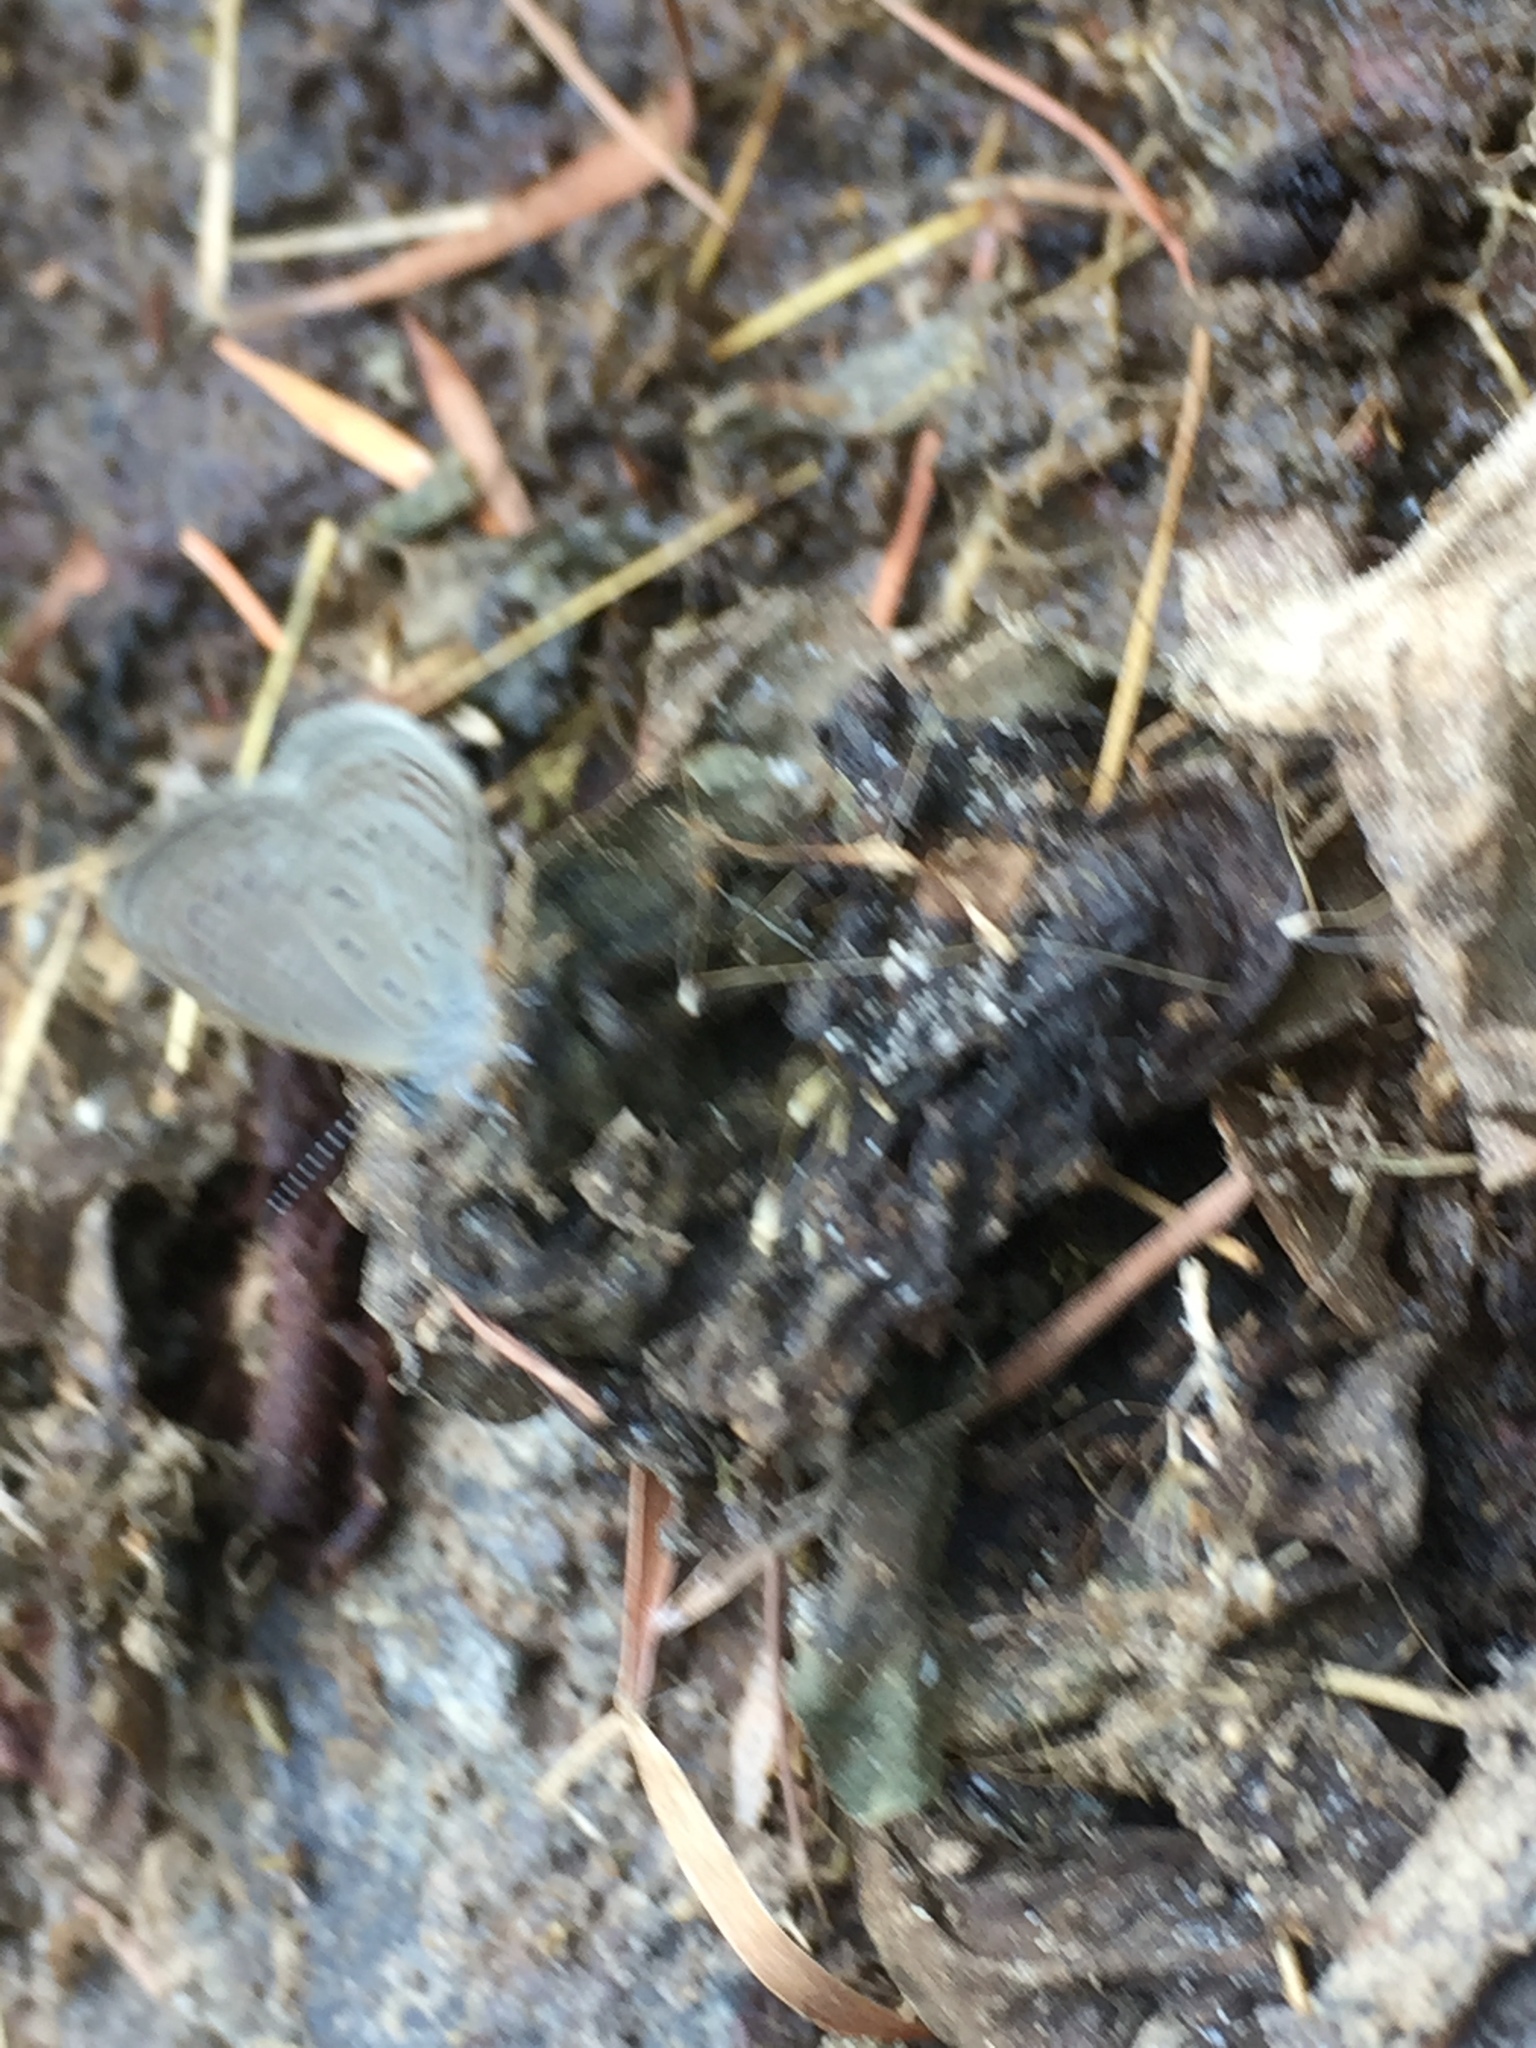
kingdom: Animalia
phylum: Arthropoda
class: Insecta
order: Lepidoptera
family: Lycaenidae
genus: Zizula
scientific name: Zizula hylax
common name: Gaika blue
